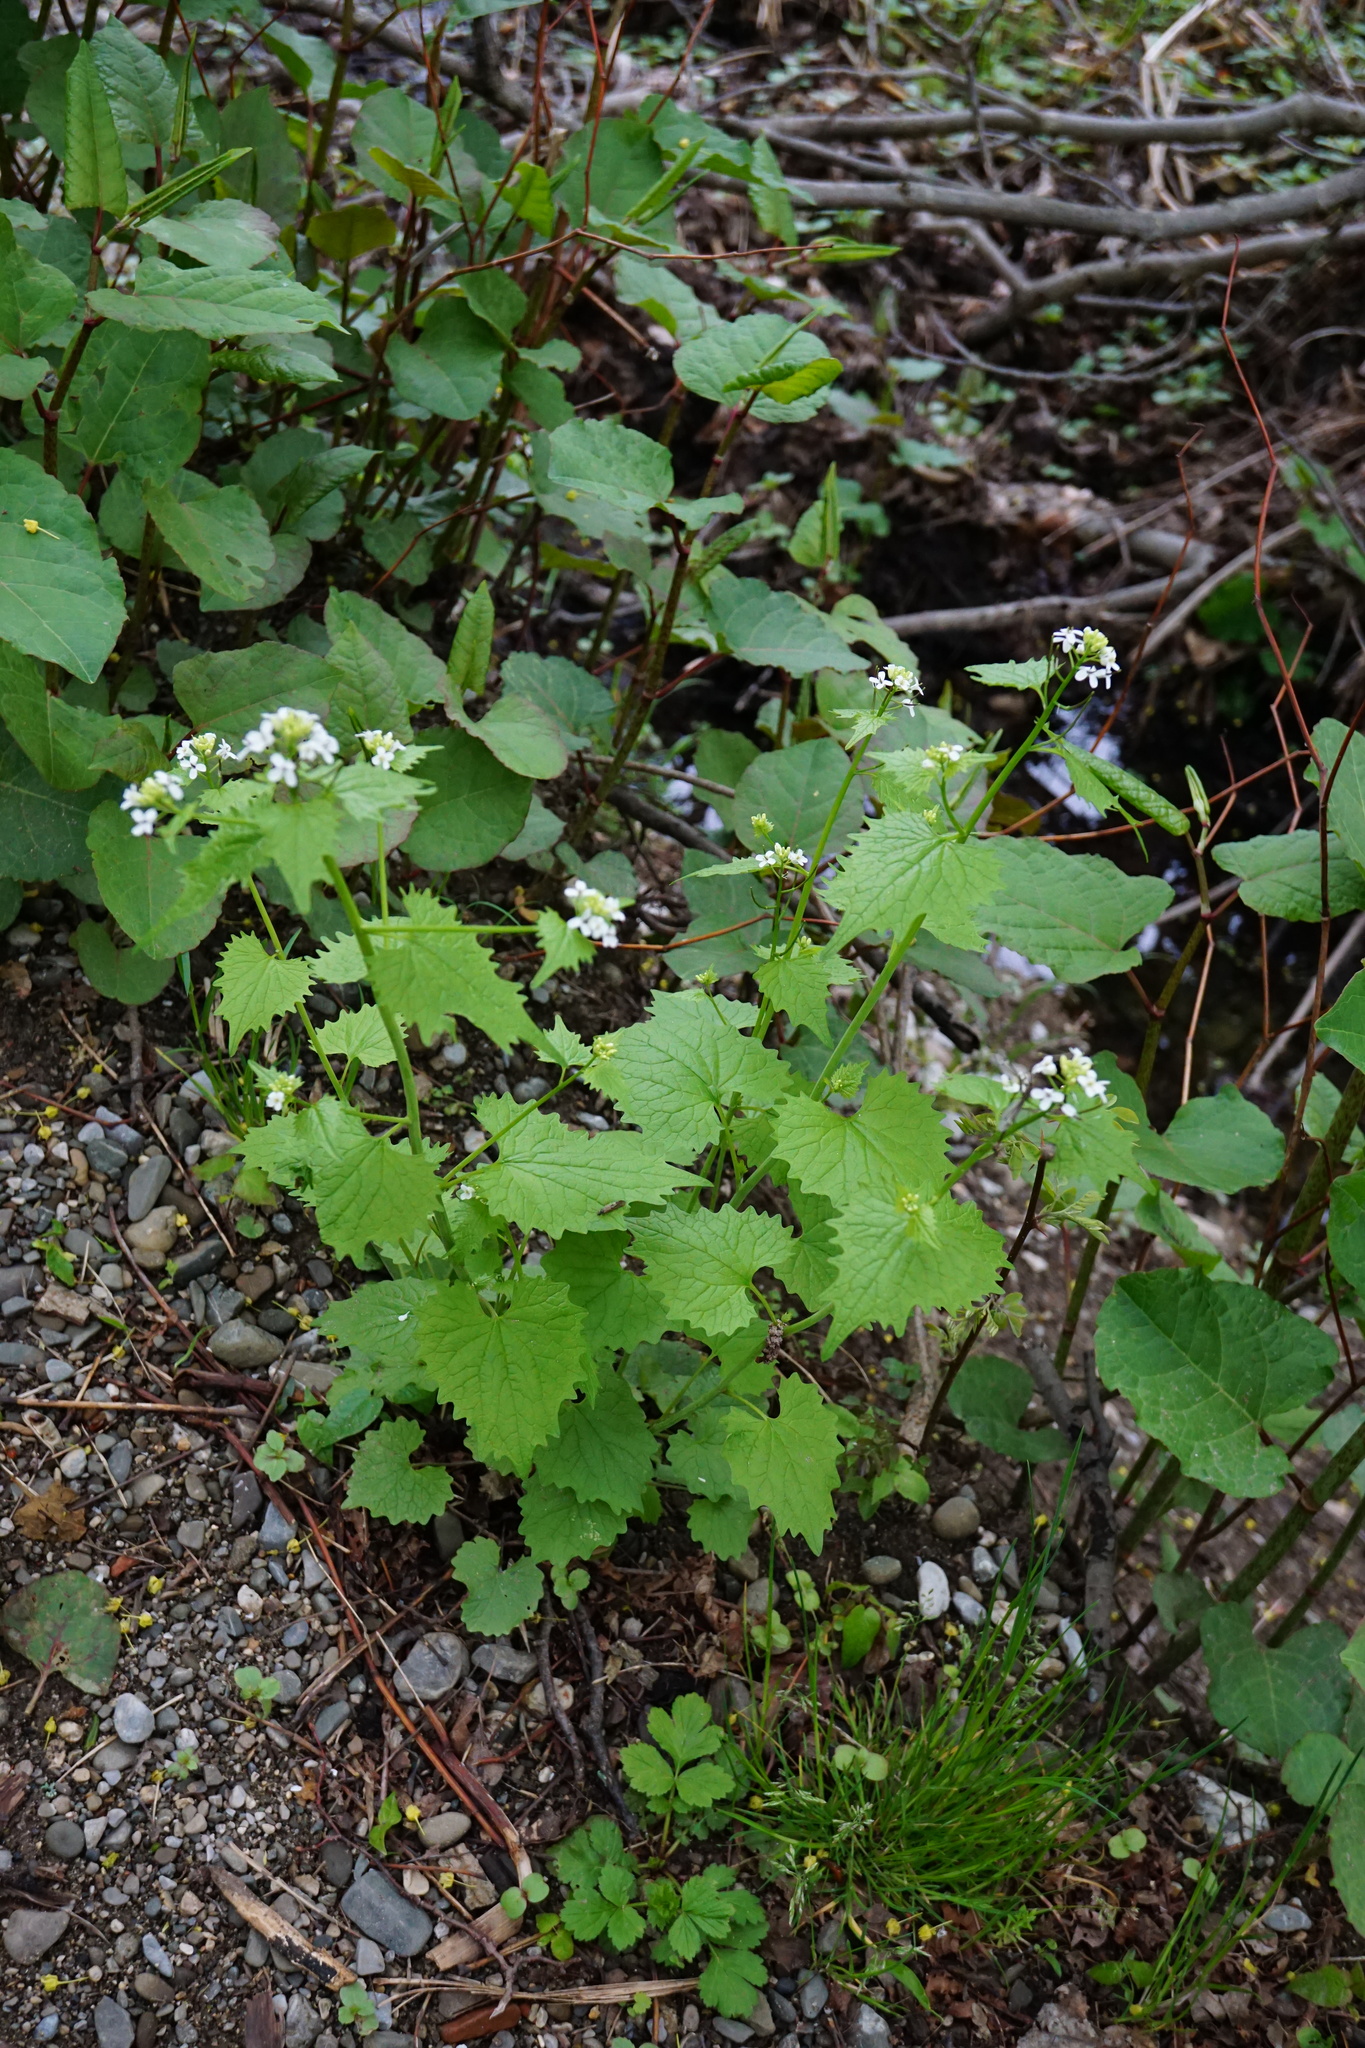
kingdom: Plantae
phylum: Tracheophyta
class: Magnoliopsida
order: Brassicales
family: Brassicaceae
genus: Alliaria
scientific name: Alliaria petiolata
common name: Garlic mustard
